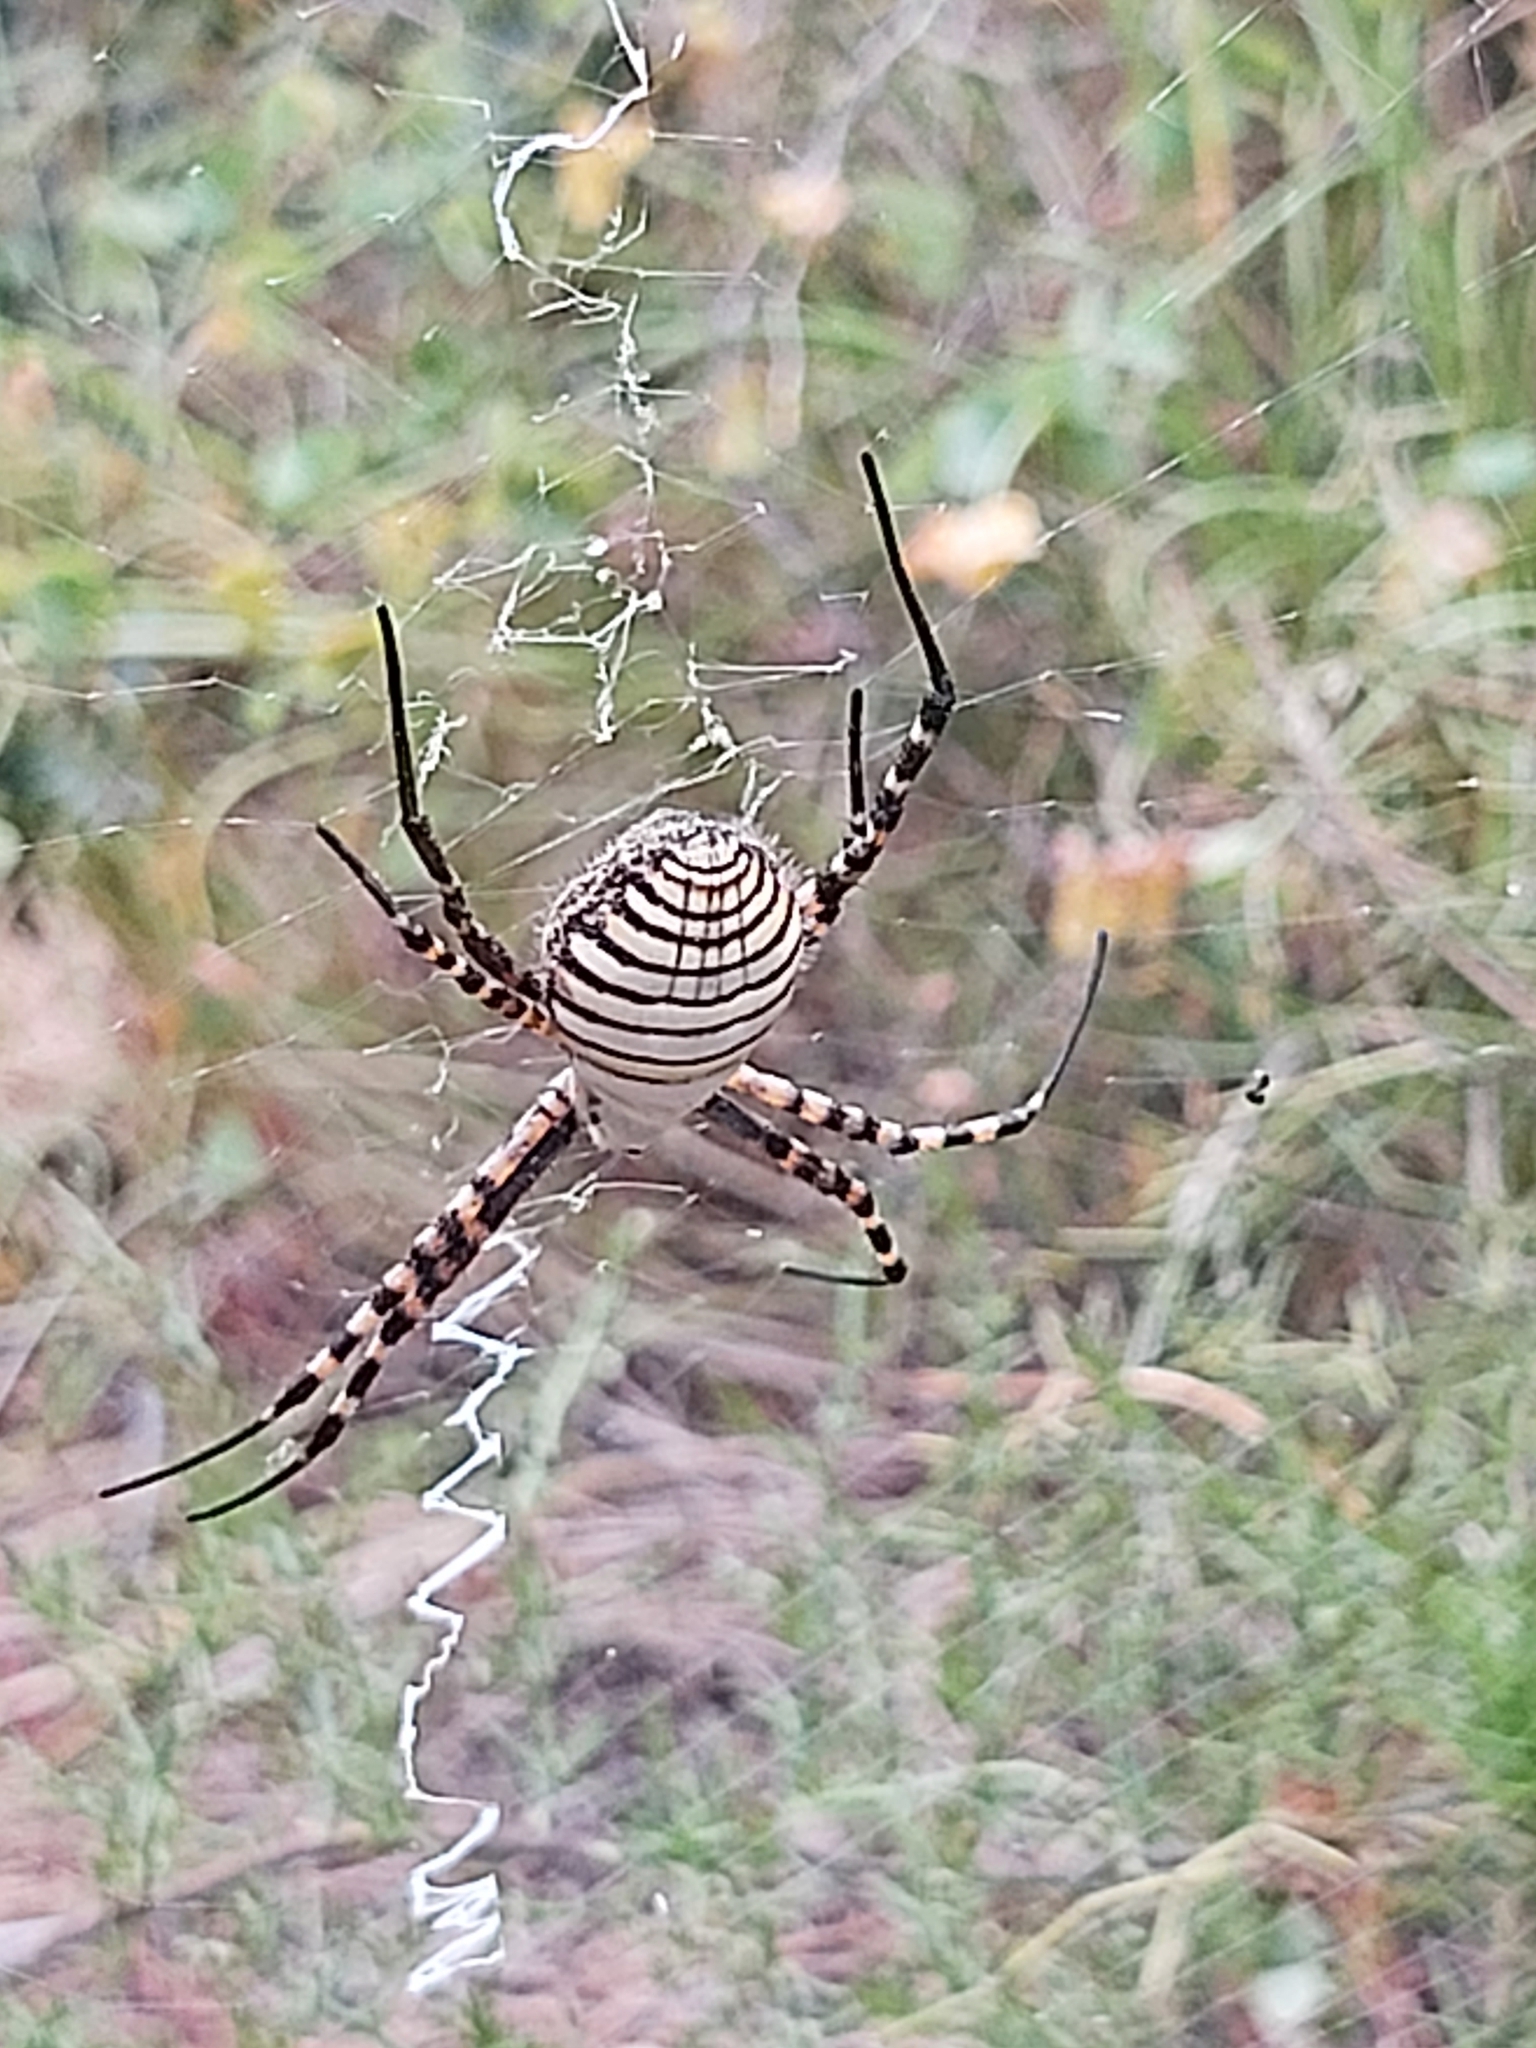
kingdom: Animalia
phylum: Arthropoda
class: Arachnida
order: Araneae
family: Araneidae
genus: Argiope
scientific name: Argiope trifasciata
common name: Banded garden spider
